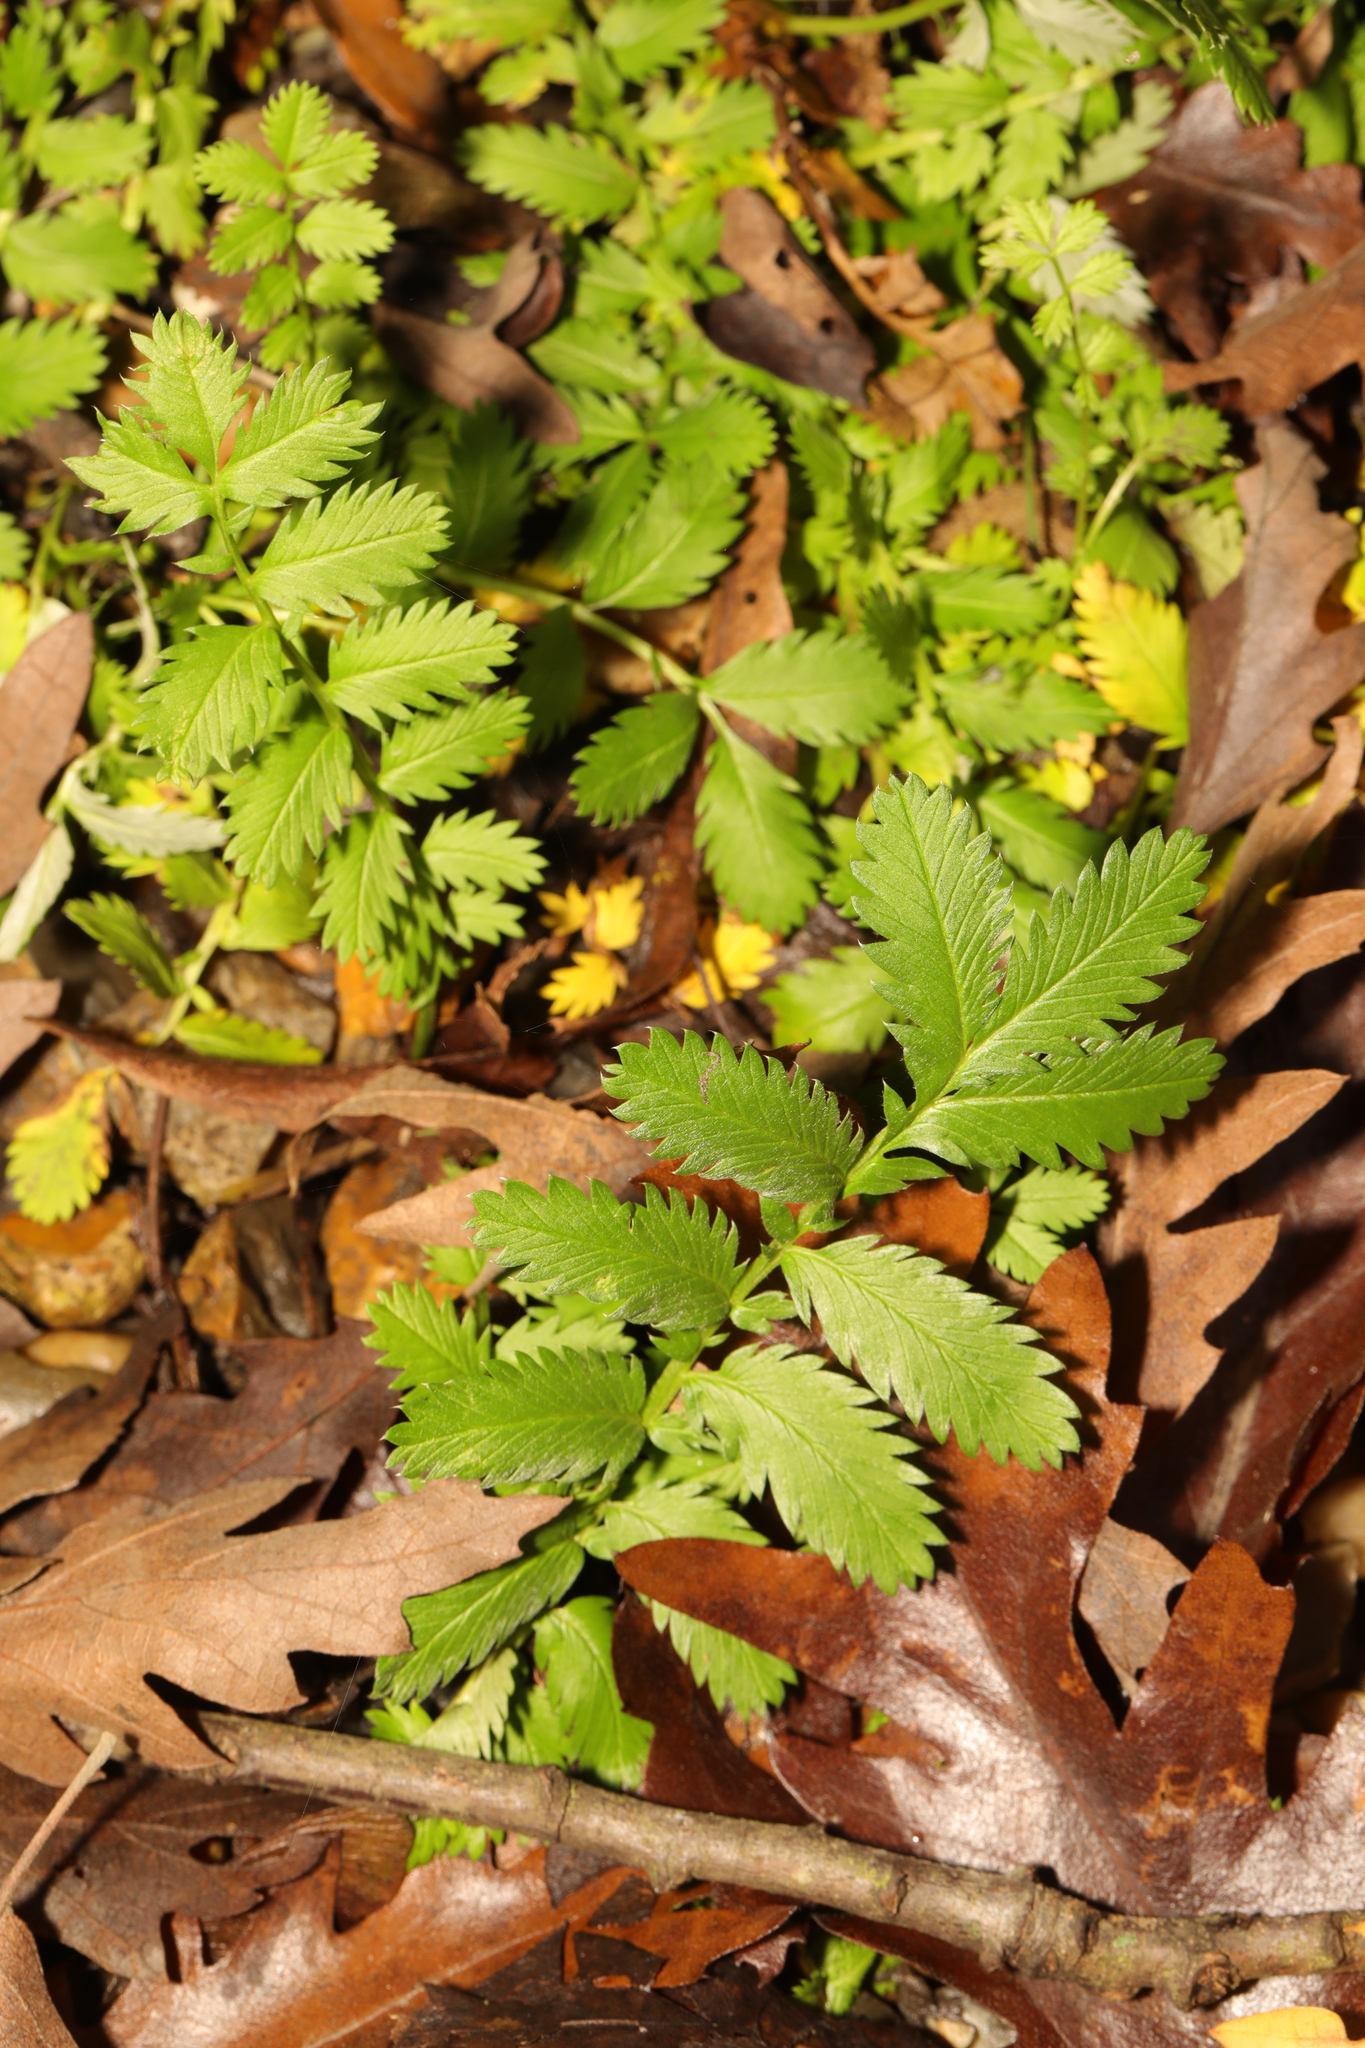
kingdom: Plantae
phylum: Tracheophyta
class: Magnoliopsida
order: Rosales
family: Rosaceae
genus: Argentina
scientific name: Argentina anserina
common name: Common silverweed
